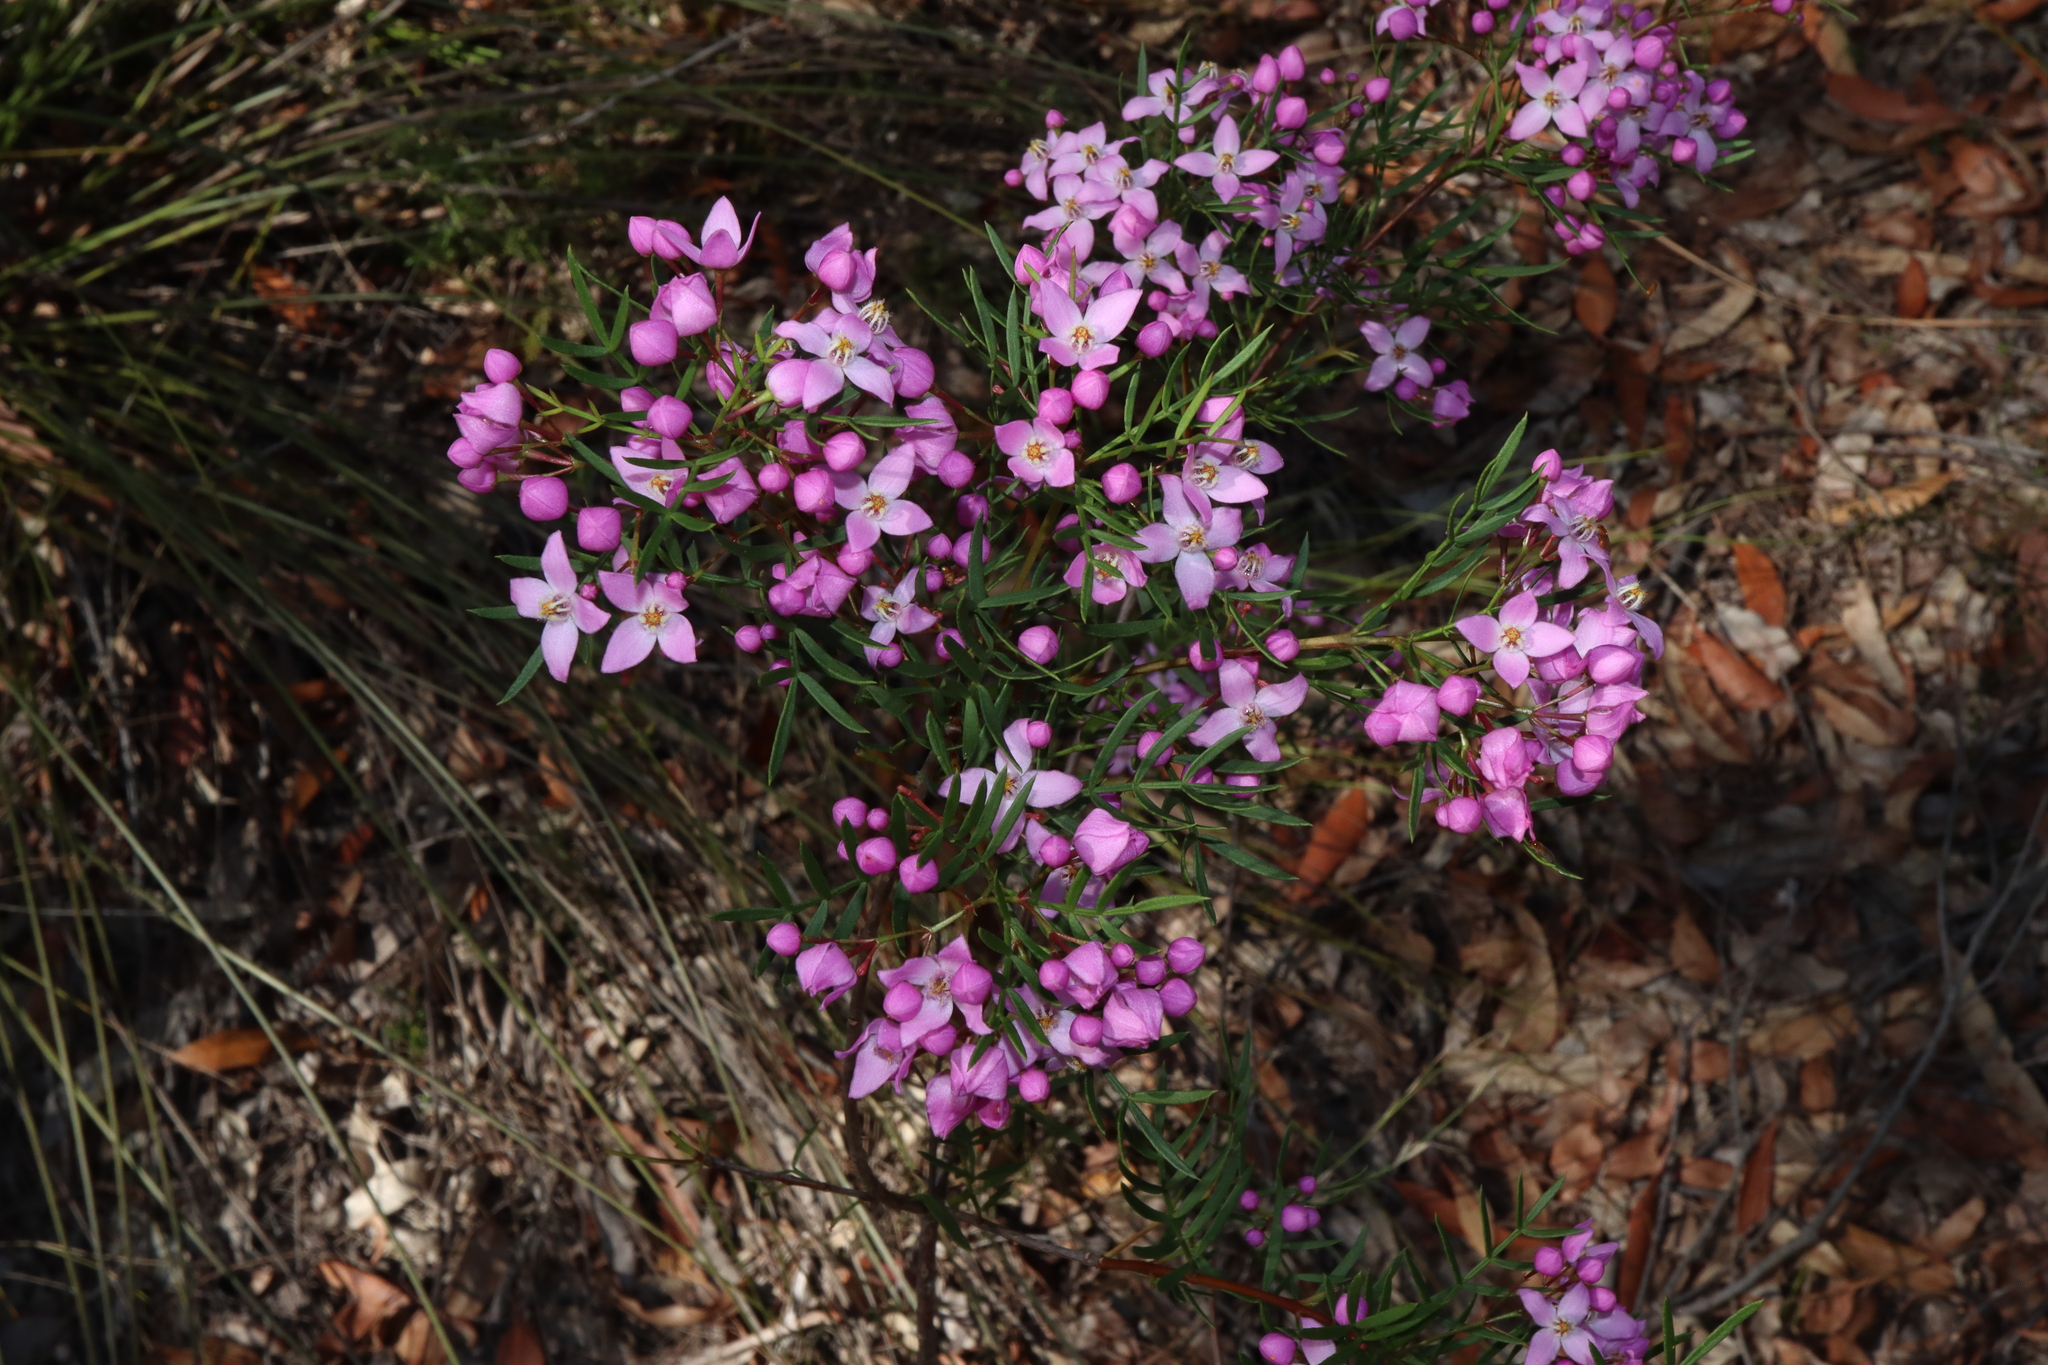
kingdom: Plantae
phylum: Tracheophyta
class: Magnoliopsida
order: Sapindales
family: Rutaceae
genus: Boronia
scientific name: Boronia pinnata
